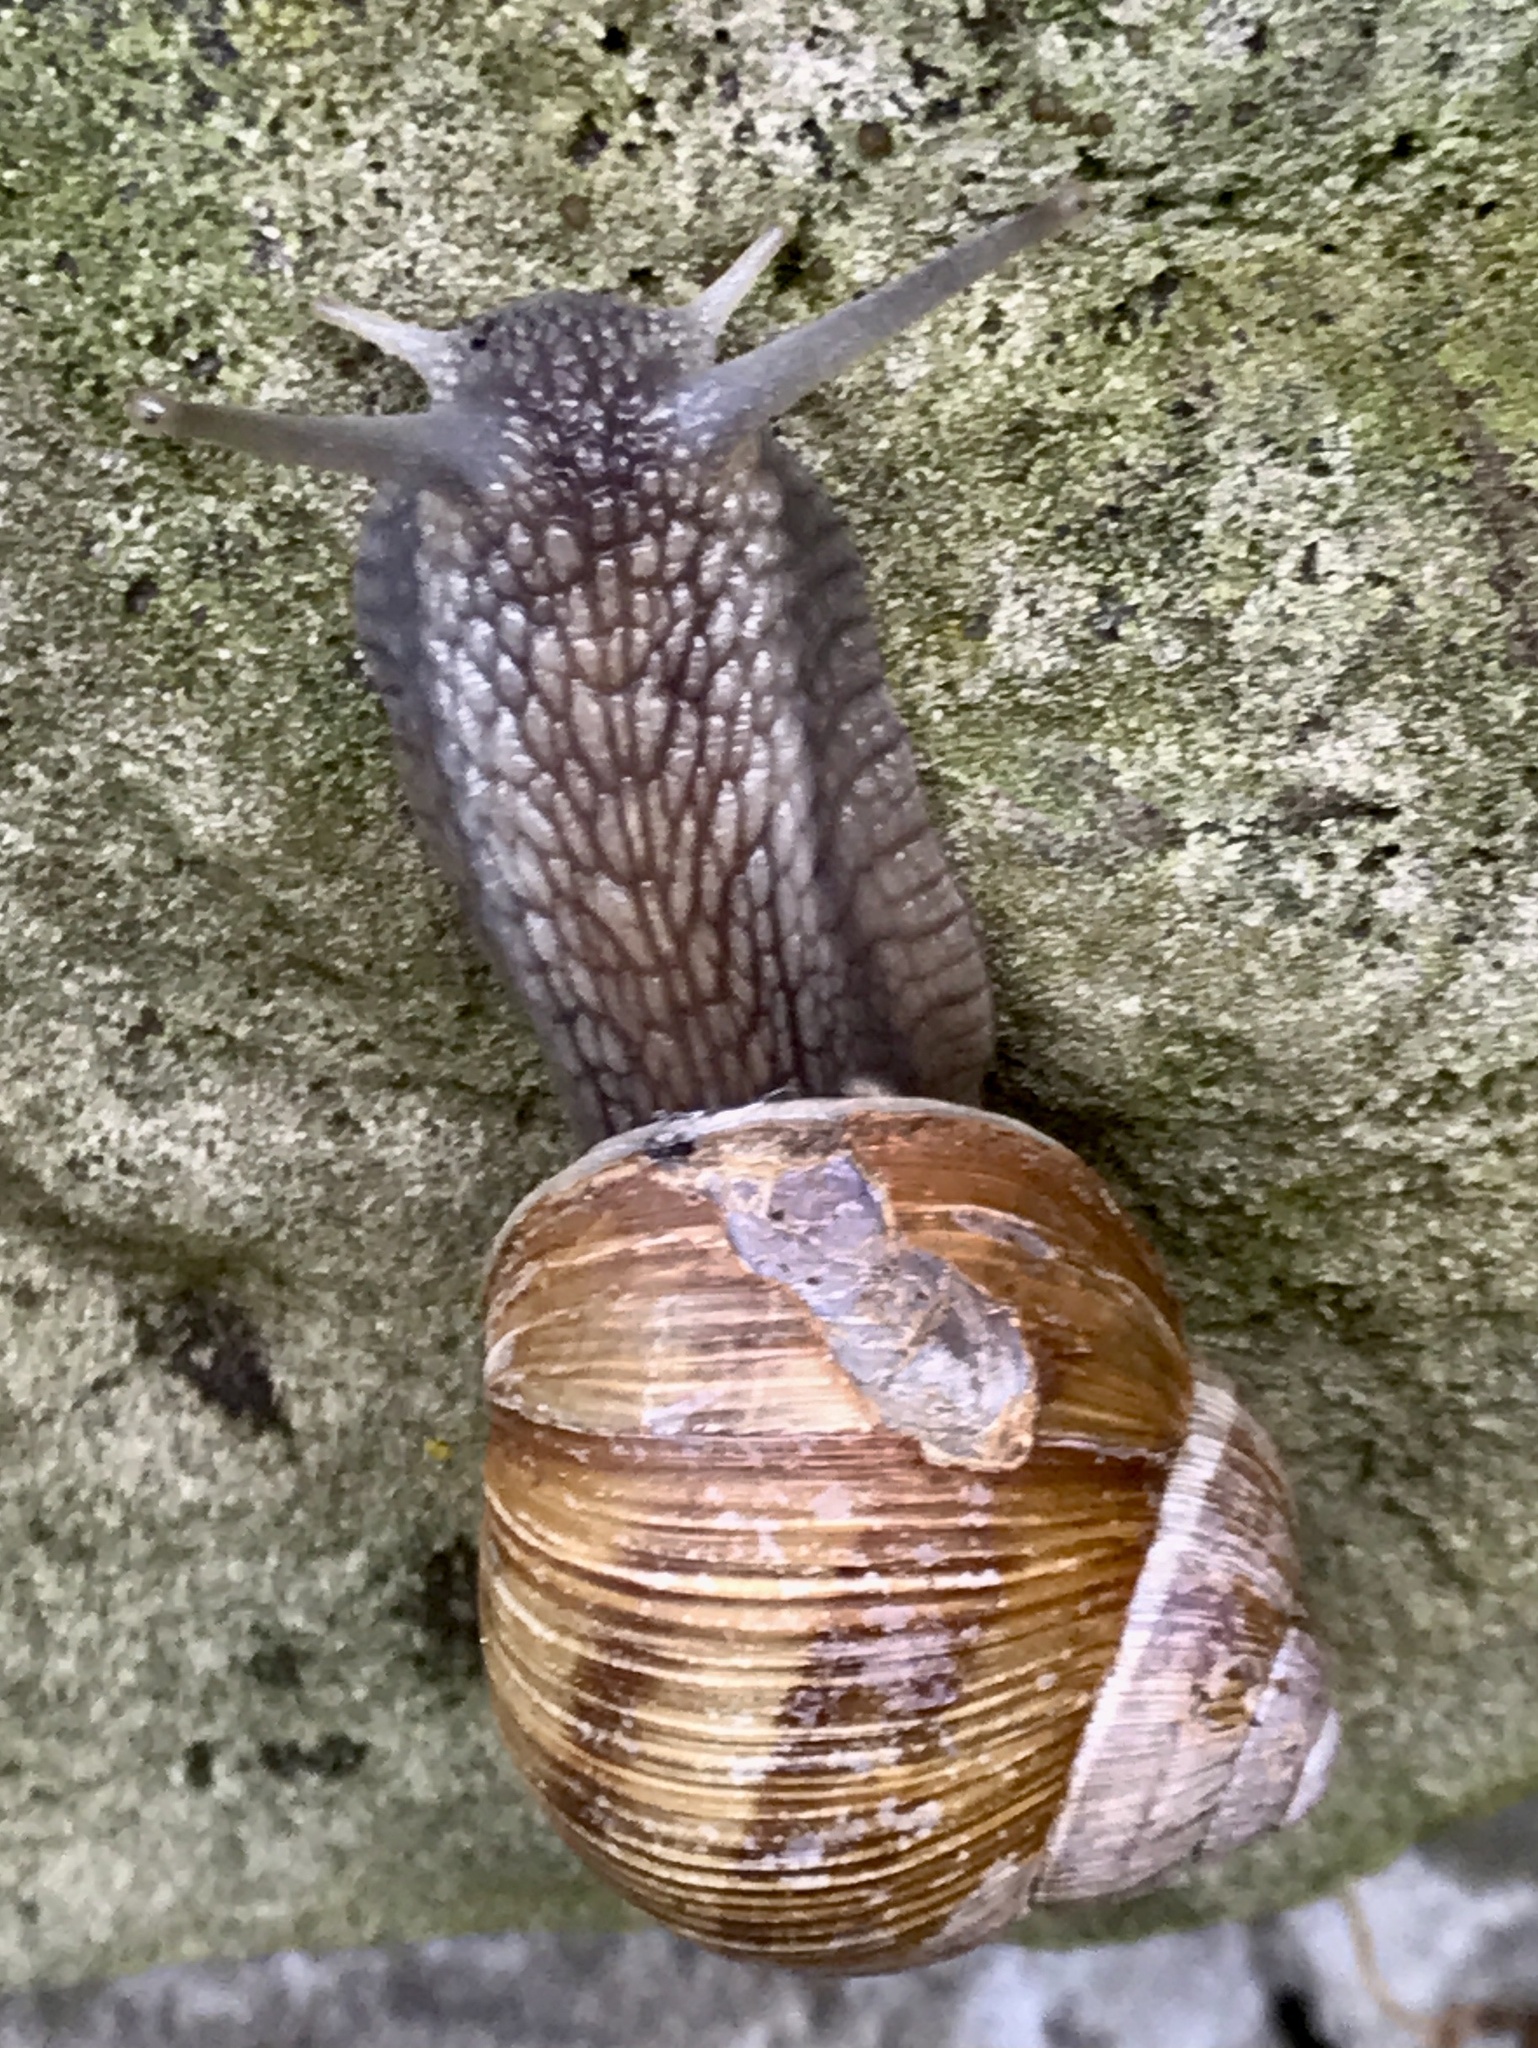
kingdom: Animalia
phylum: Mollusca
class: Gastropoda
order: Stylommatophora
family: Helicidae
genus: Helix
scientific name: Helix pomatia
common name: Roman snail
